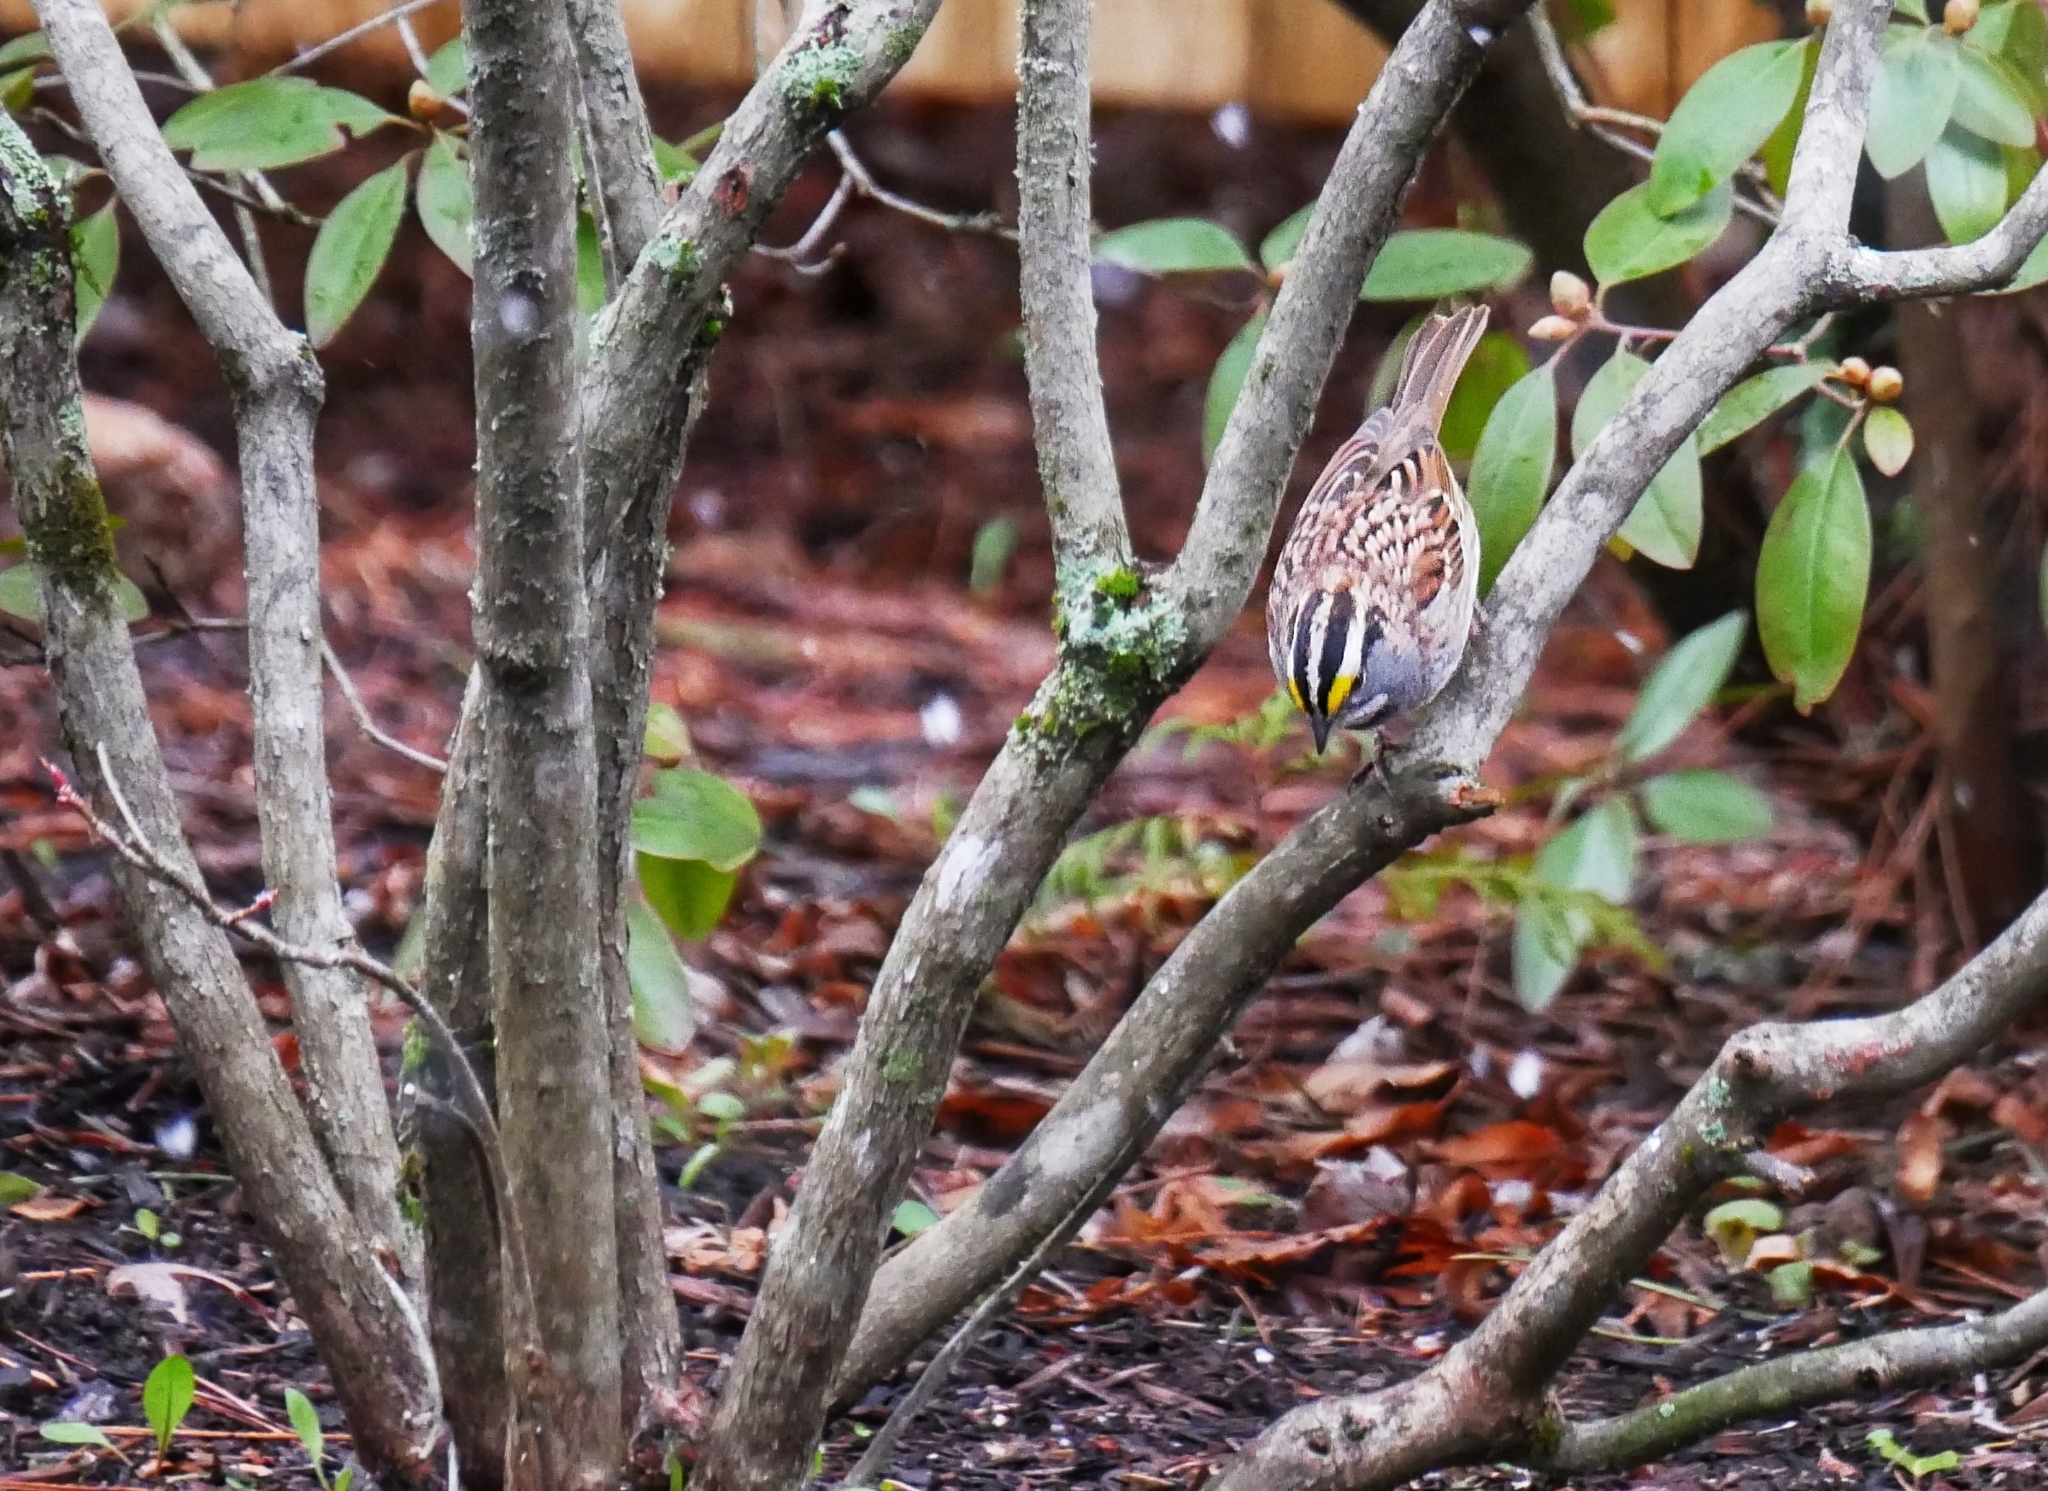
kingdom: Animalia
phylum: Chordata
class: Aves
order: Passeriformes
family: Passerellidae
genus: Zonotrichia
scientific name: Zonotrichia albicollis
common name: White-throated sparrow
